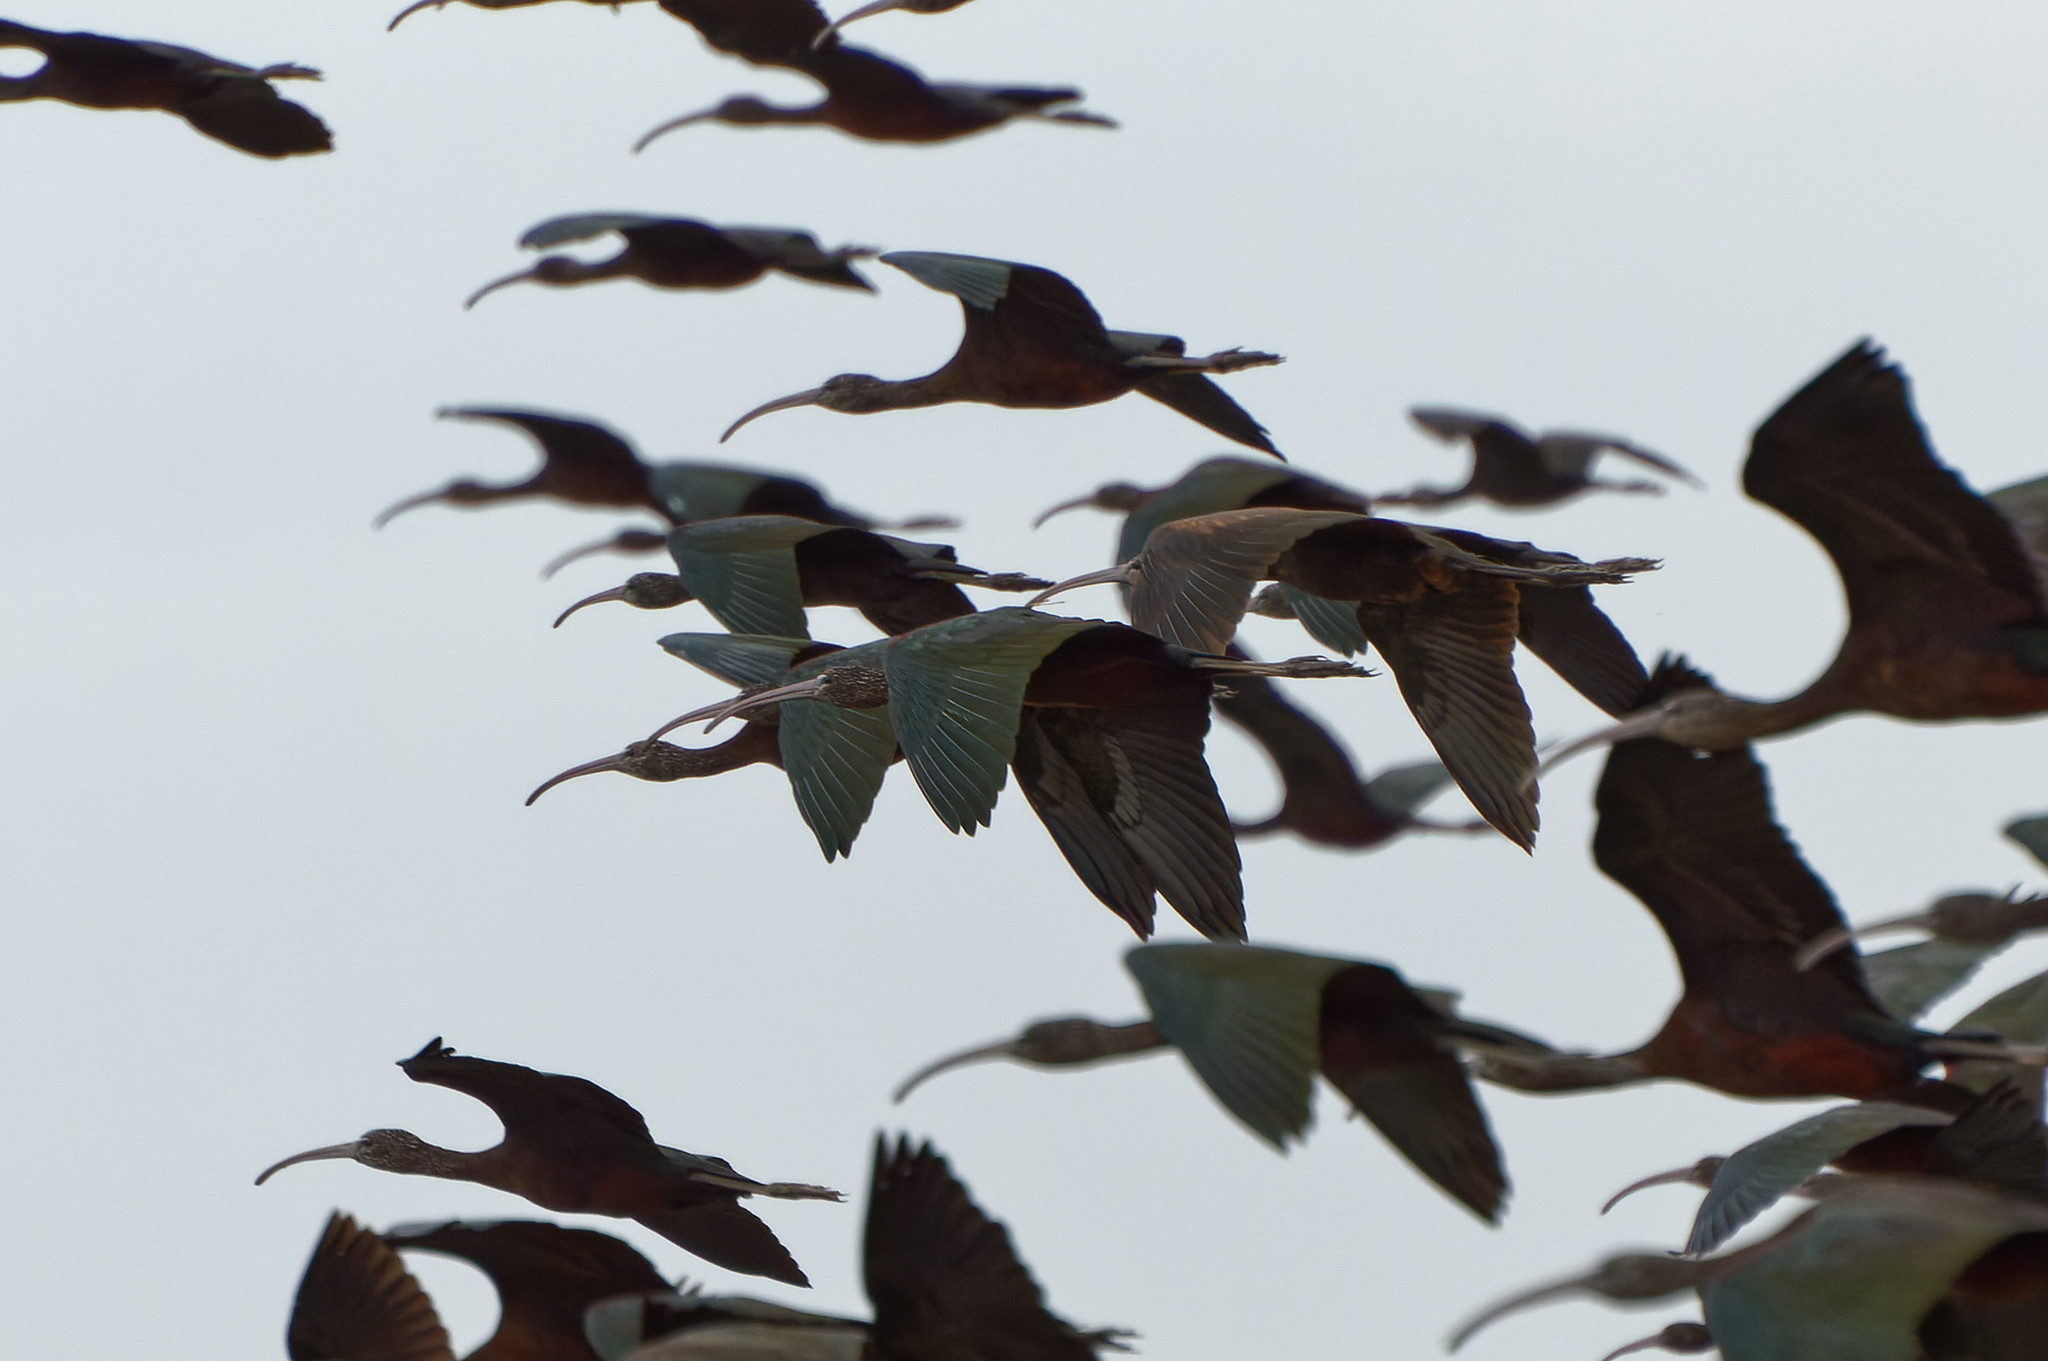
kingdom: Animalia
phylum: Chordata
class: Aves
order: Pelecaniformes
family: Threskiornithidae
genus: Plegadis
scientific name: Plegadis falcinellus
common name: Glossy ibis
